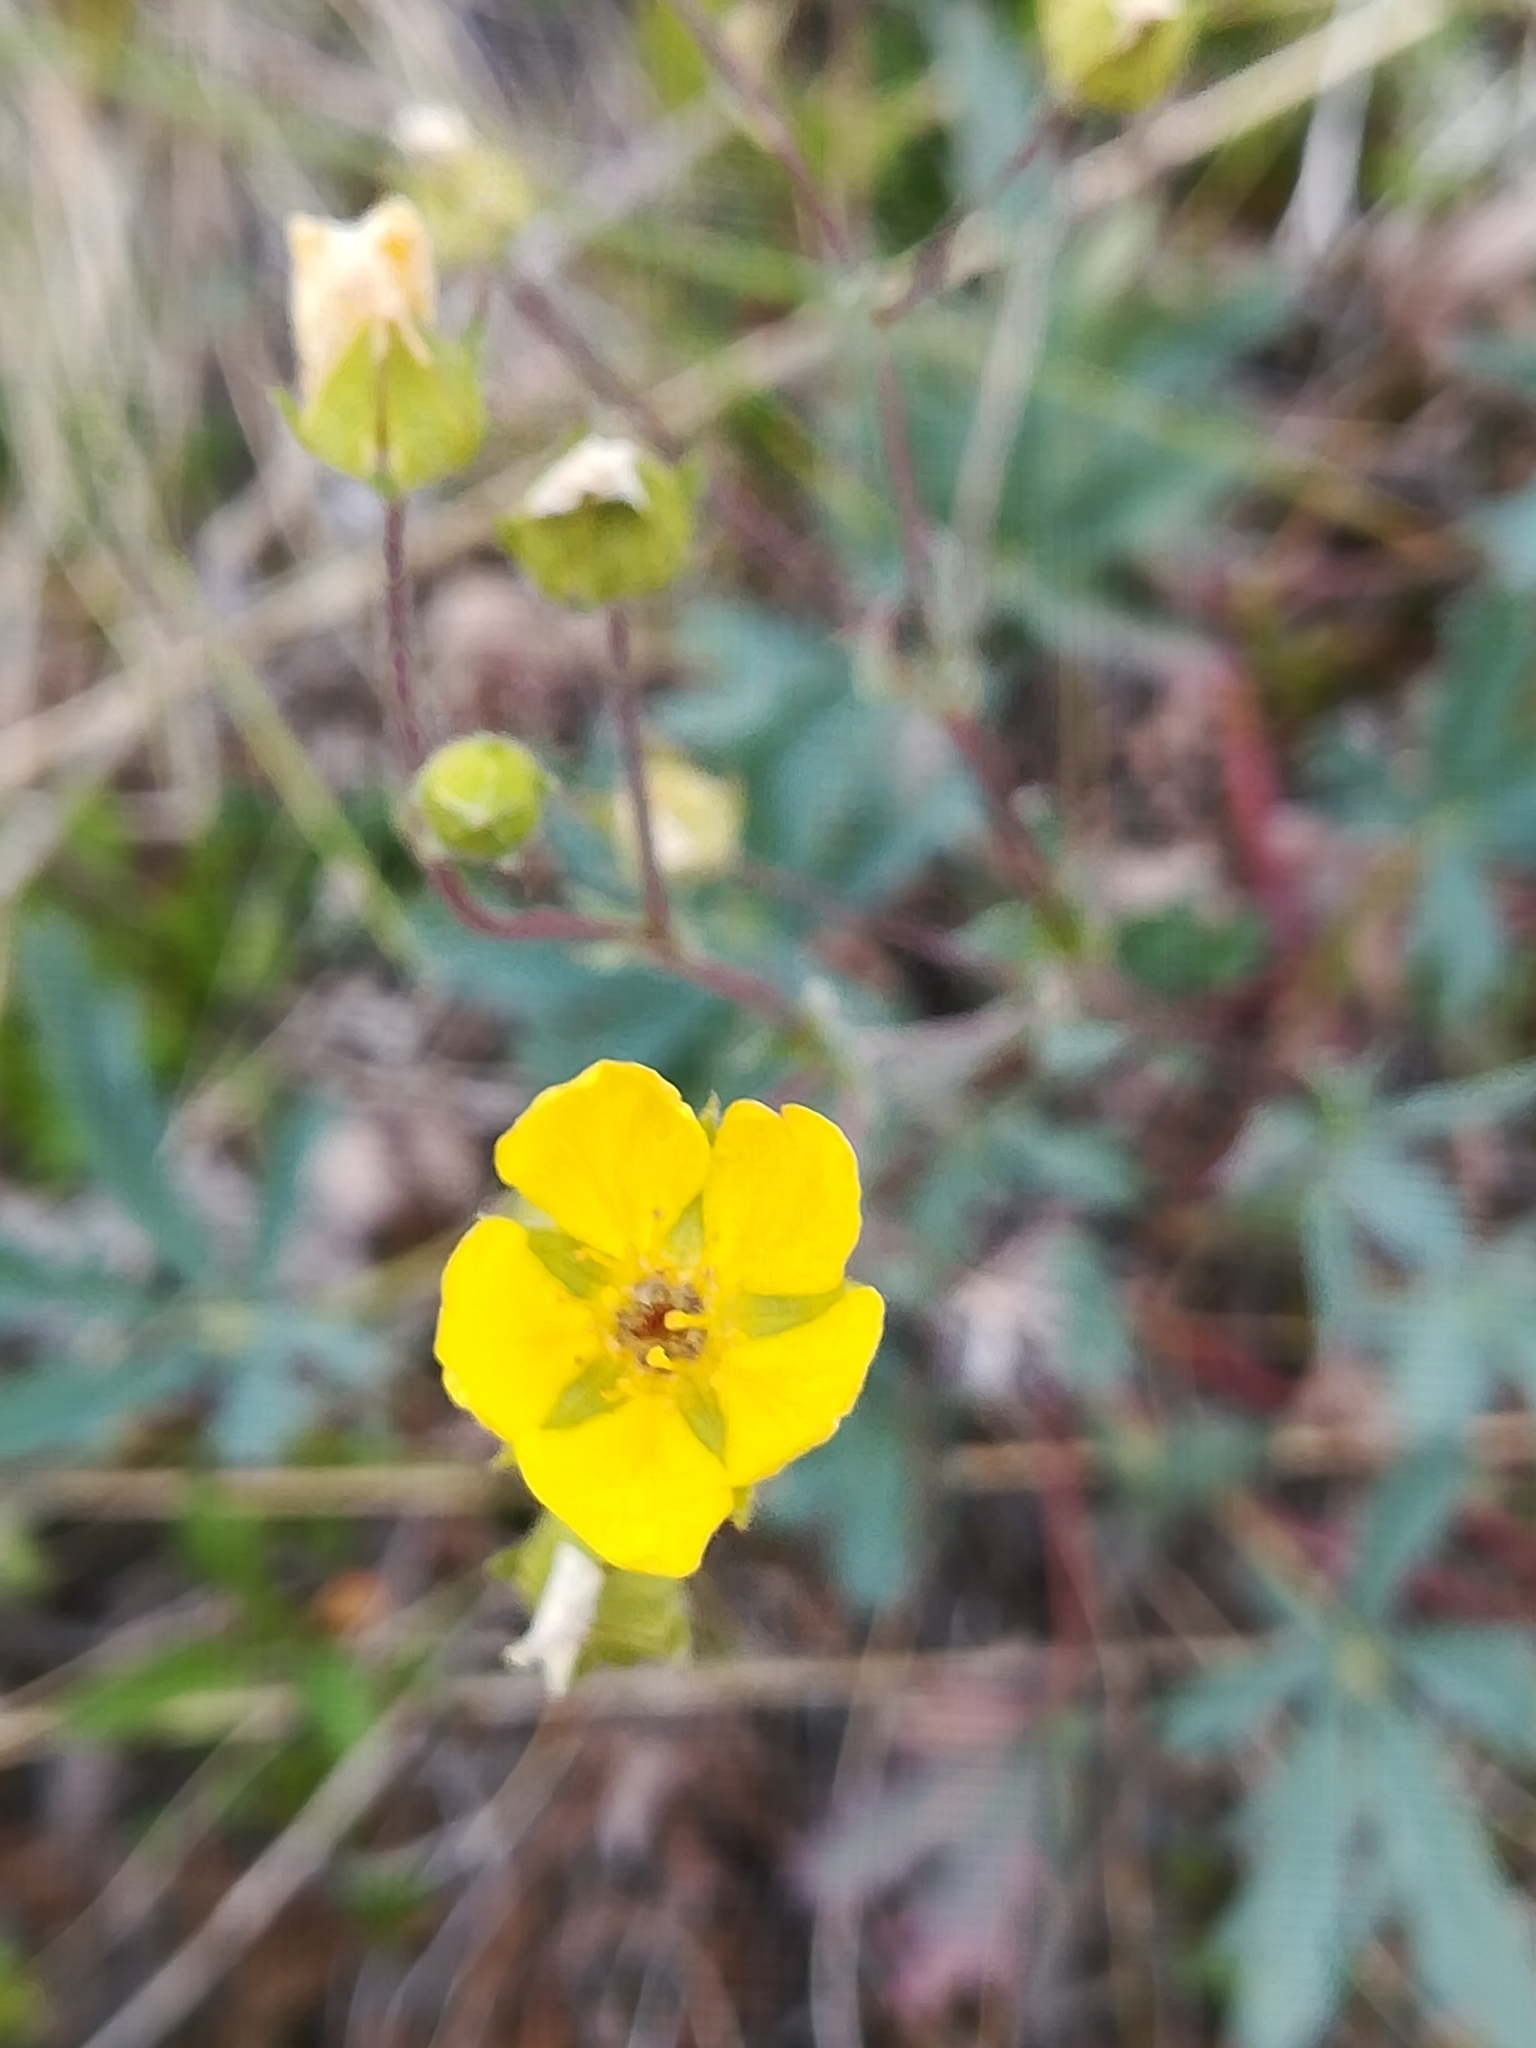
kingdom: Plantae
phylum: Tracheophyta
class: Magnoliopsida
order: Rosales
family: Rosaceae
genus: Potentilla
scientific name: Potentilla glaucophylla
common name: Blue-leaved cinquefoil
